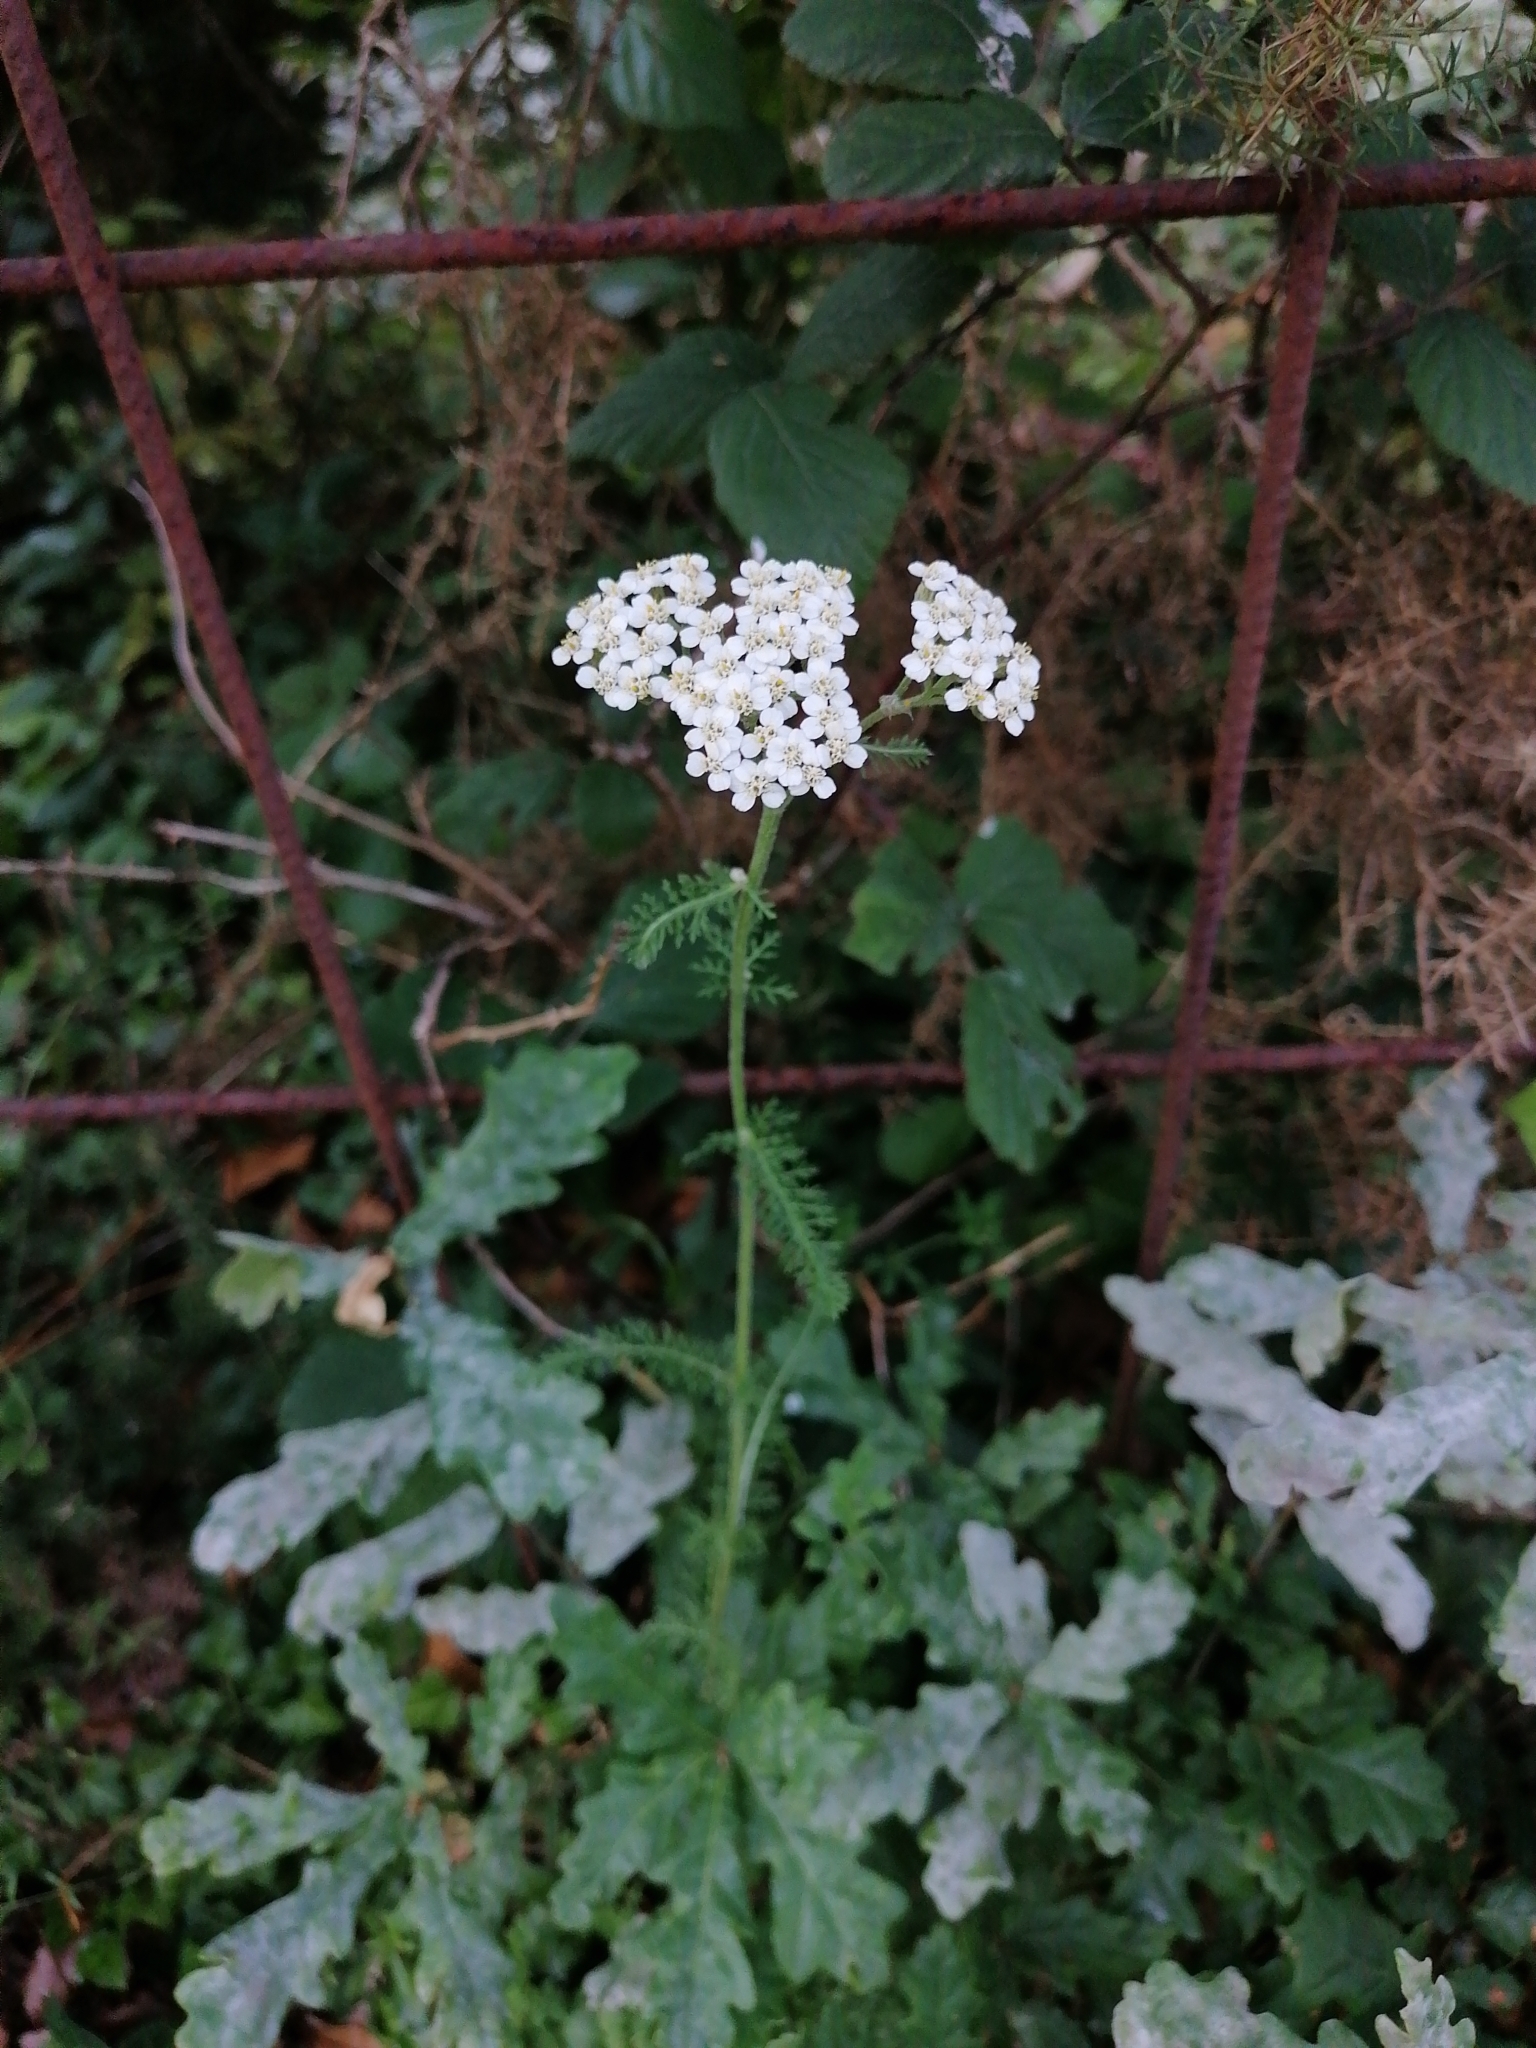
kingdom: Plantae
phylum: Tracheophyta
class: Magnoliopsida
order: Asterales
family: Asteraceae
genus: Achillea
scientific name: Achillea millefolium
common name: Yarrow
